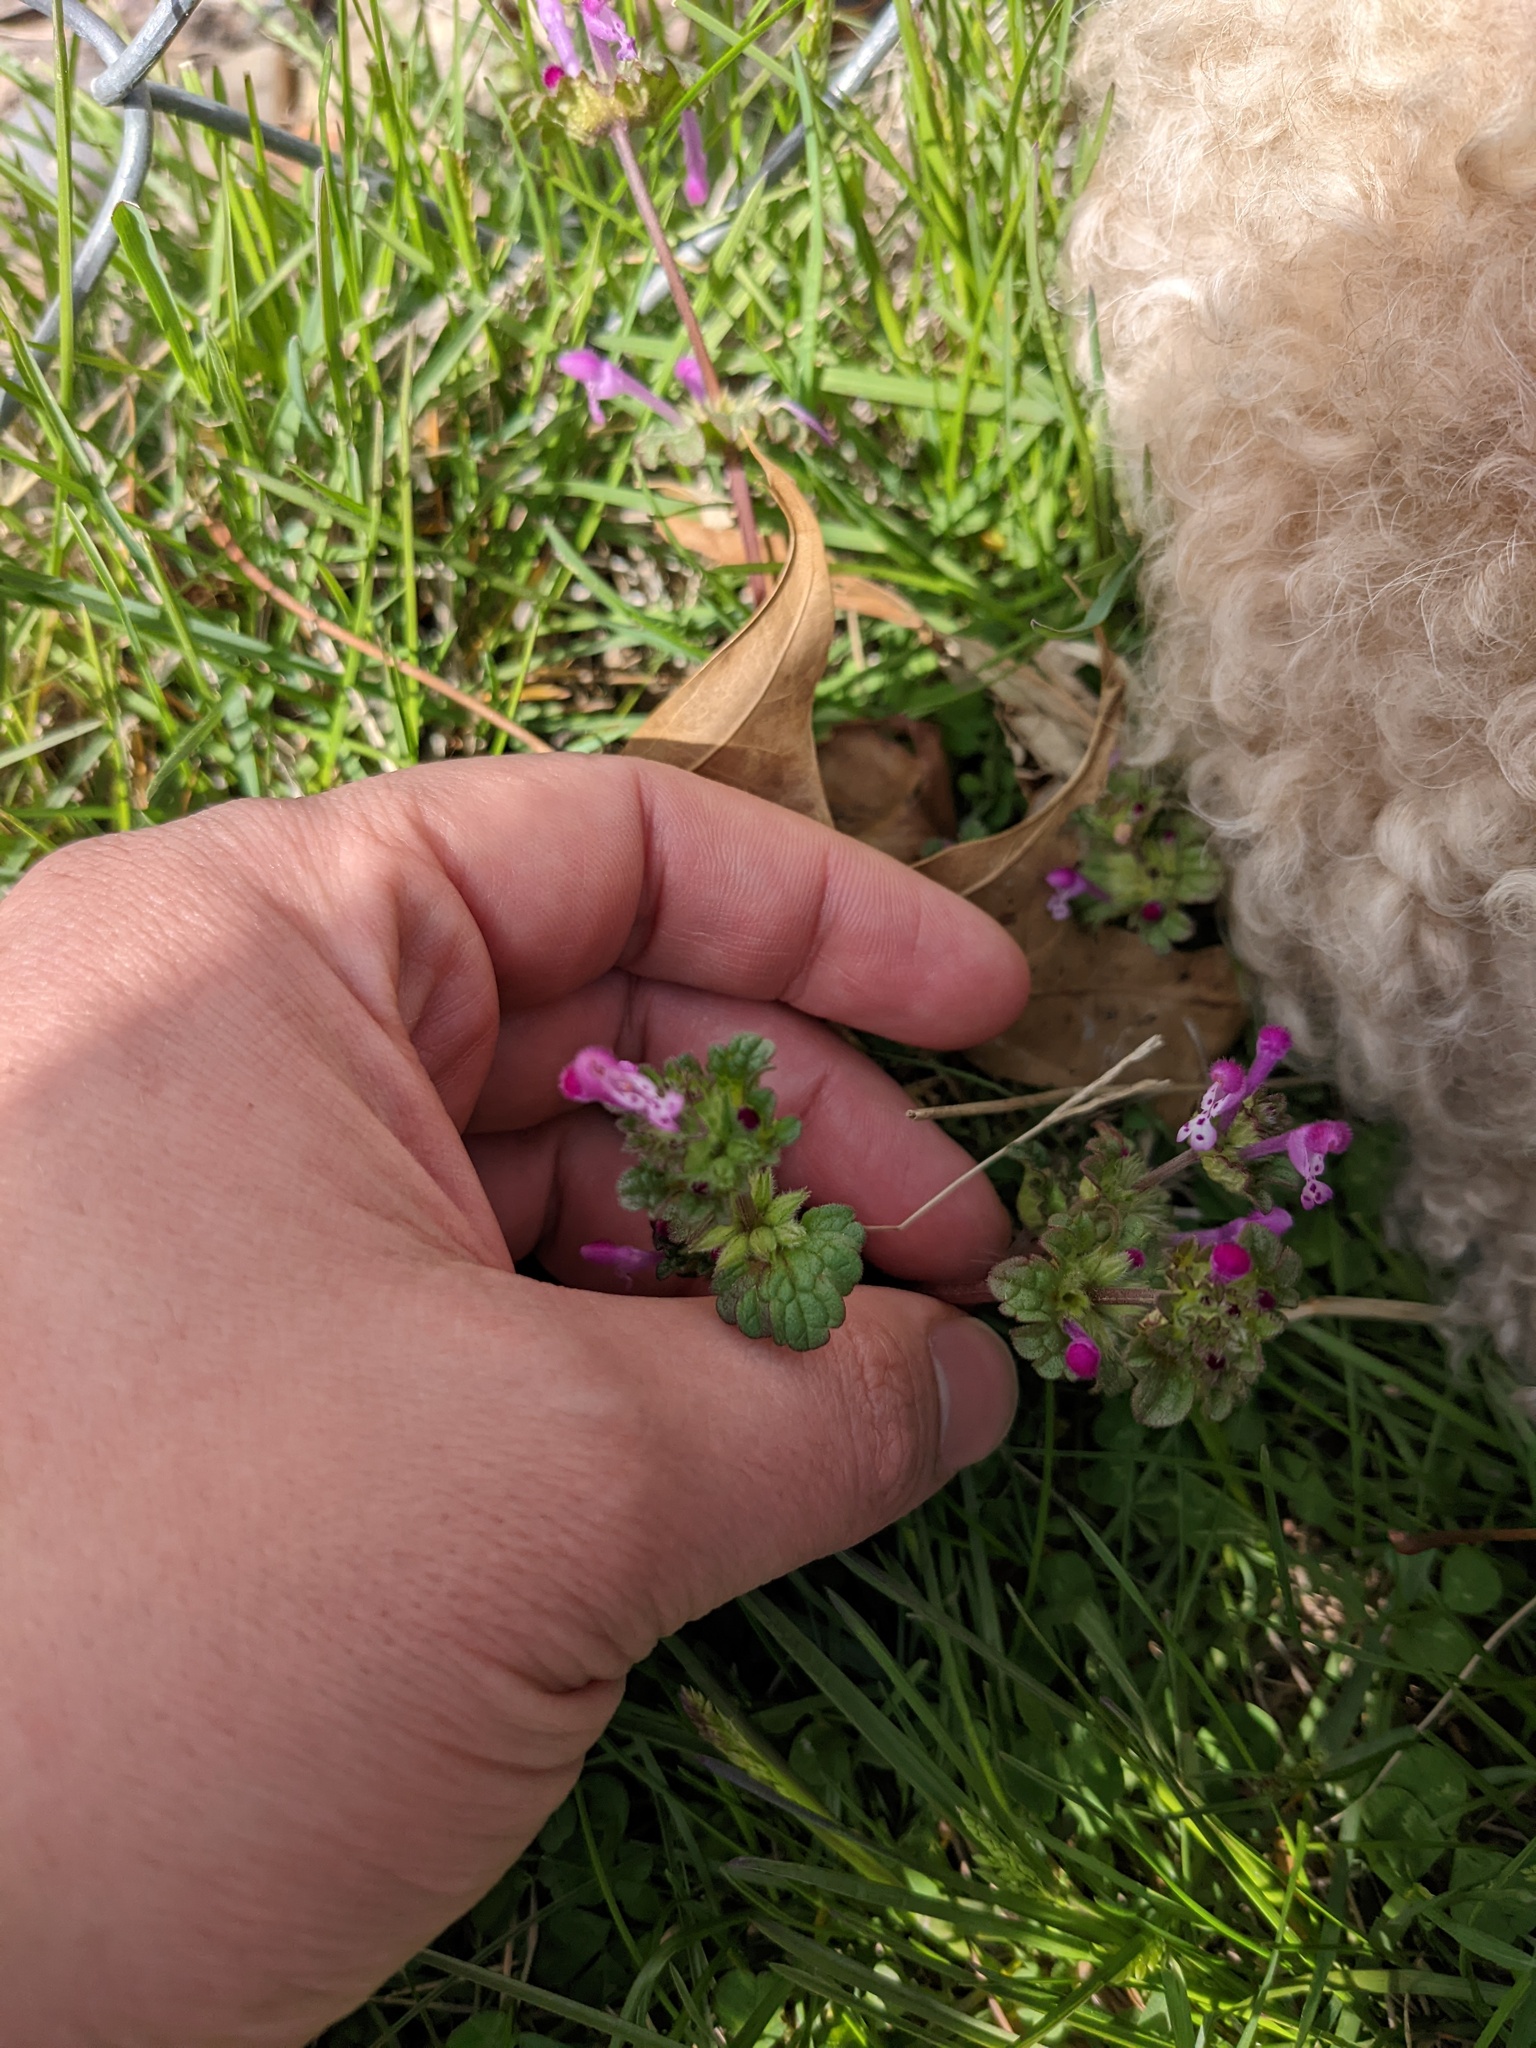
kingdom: Plantae
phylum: Tracheophyta
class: Magnoliopsida
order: Lamiales
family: Lamiaceae
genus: Lamium
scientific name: Lamium amplexicaule
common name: Henbit dead-nettle
